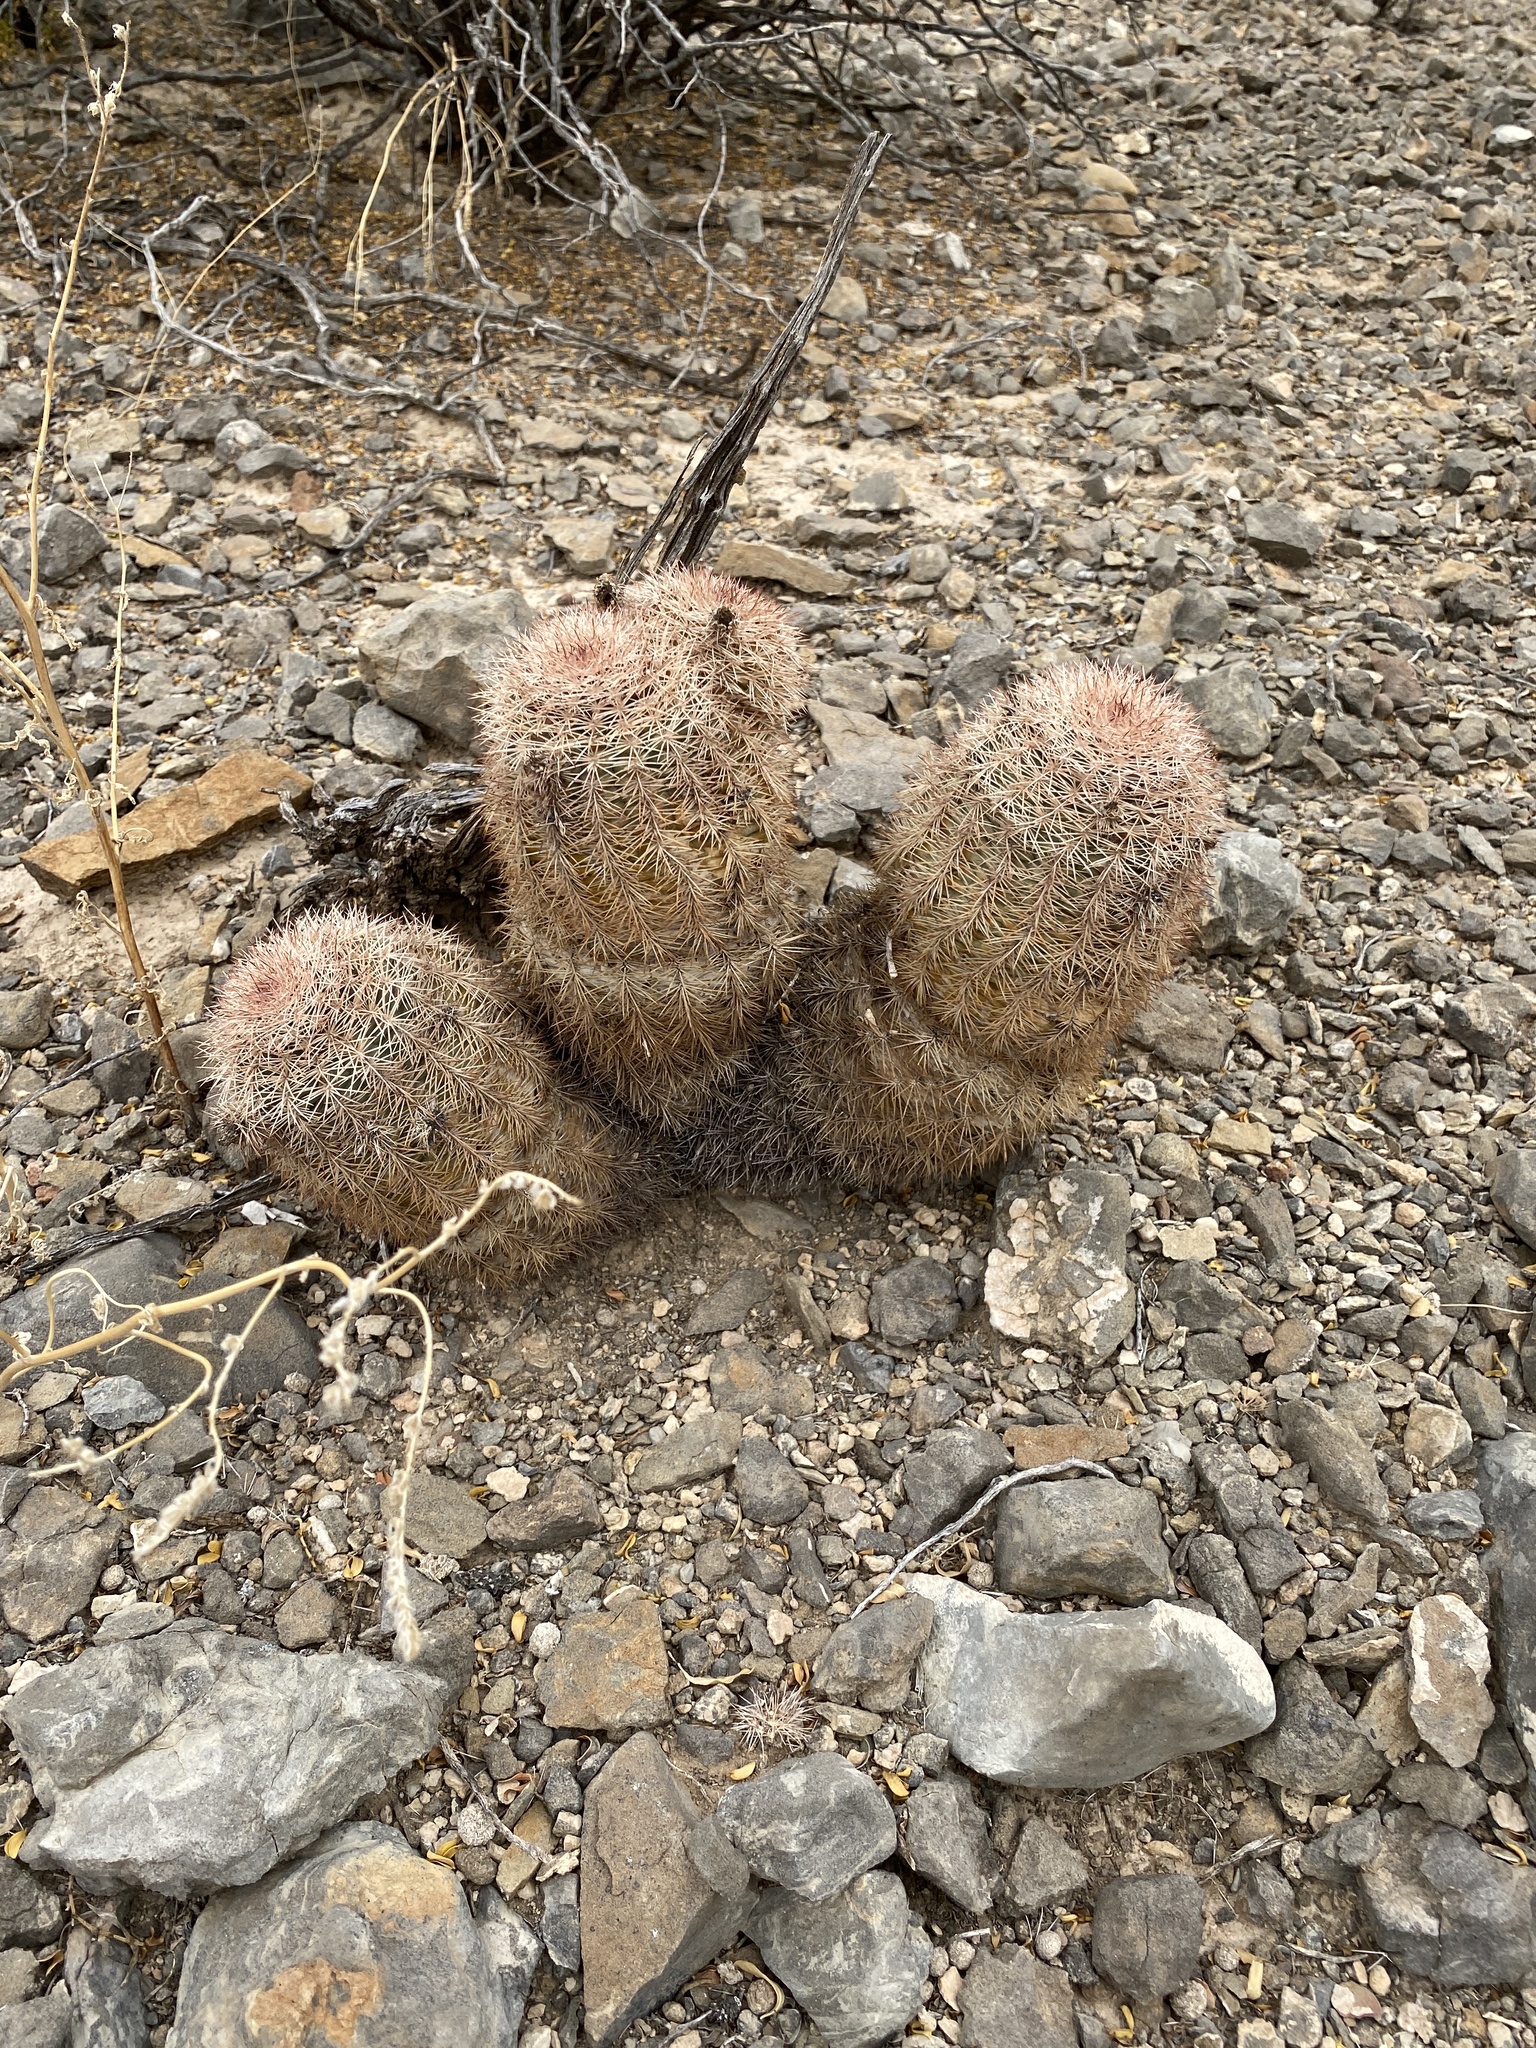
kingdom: Plantae
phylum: Tracheophyta
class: Magnoliopsida
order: Caryophyllales
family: Cactaceae
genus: Echinocereus
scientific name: Echinocereus dasyacanthus
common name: Spiny hedgehog cactus
